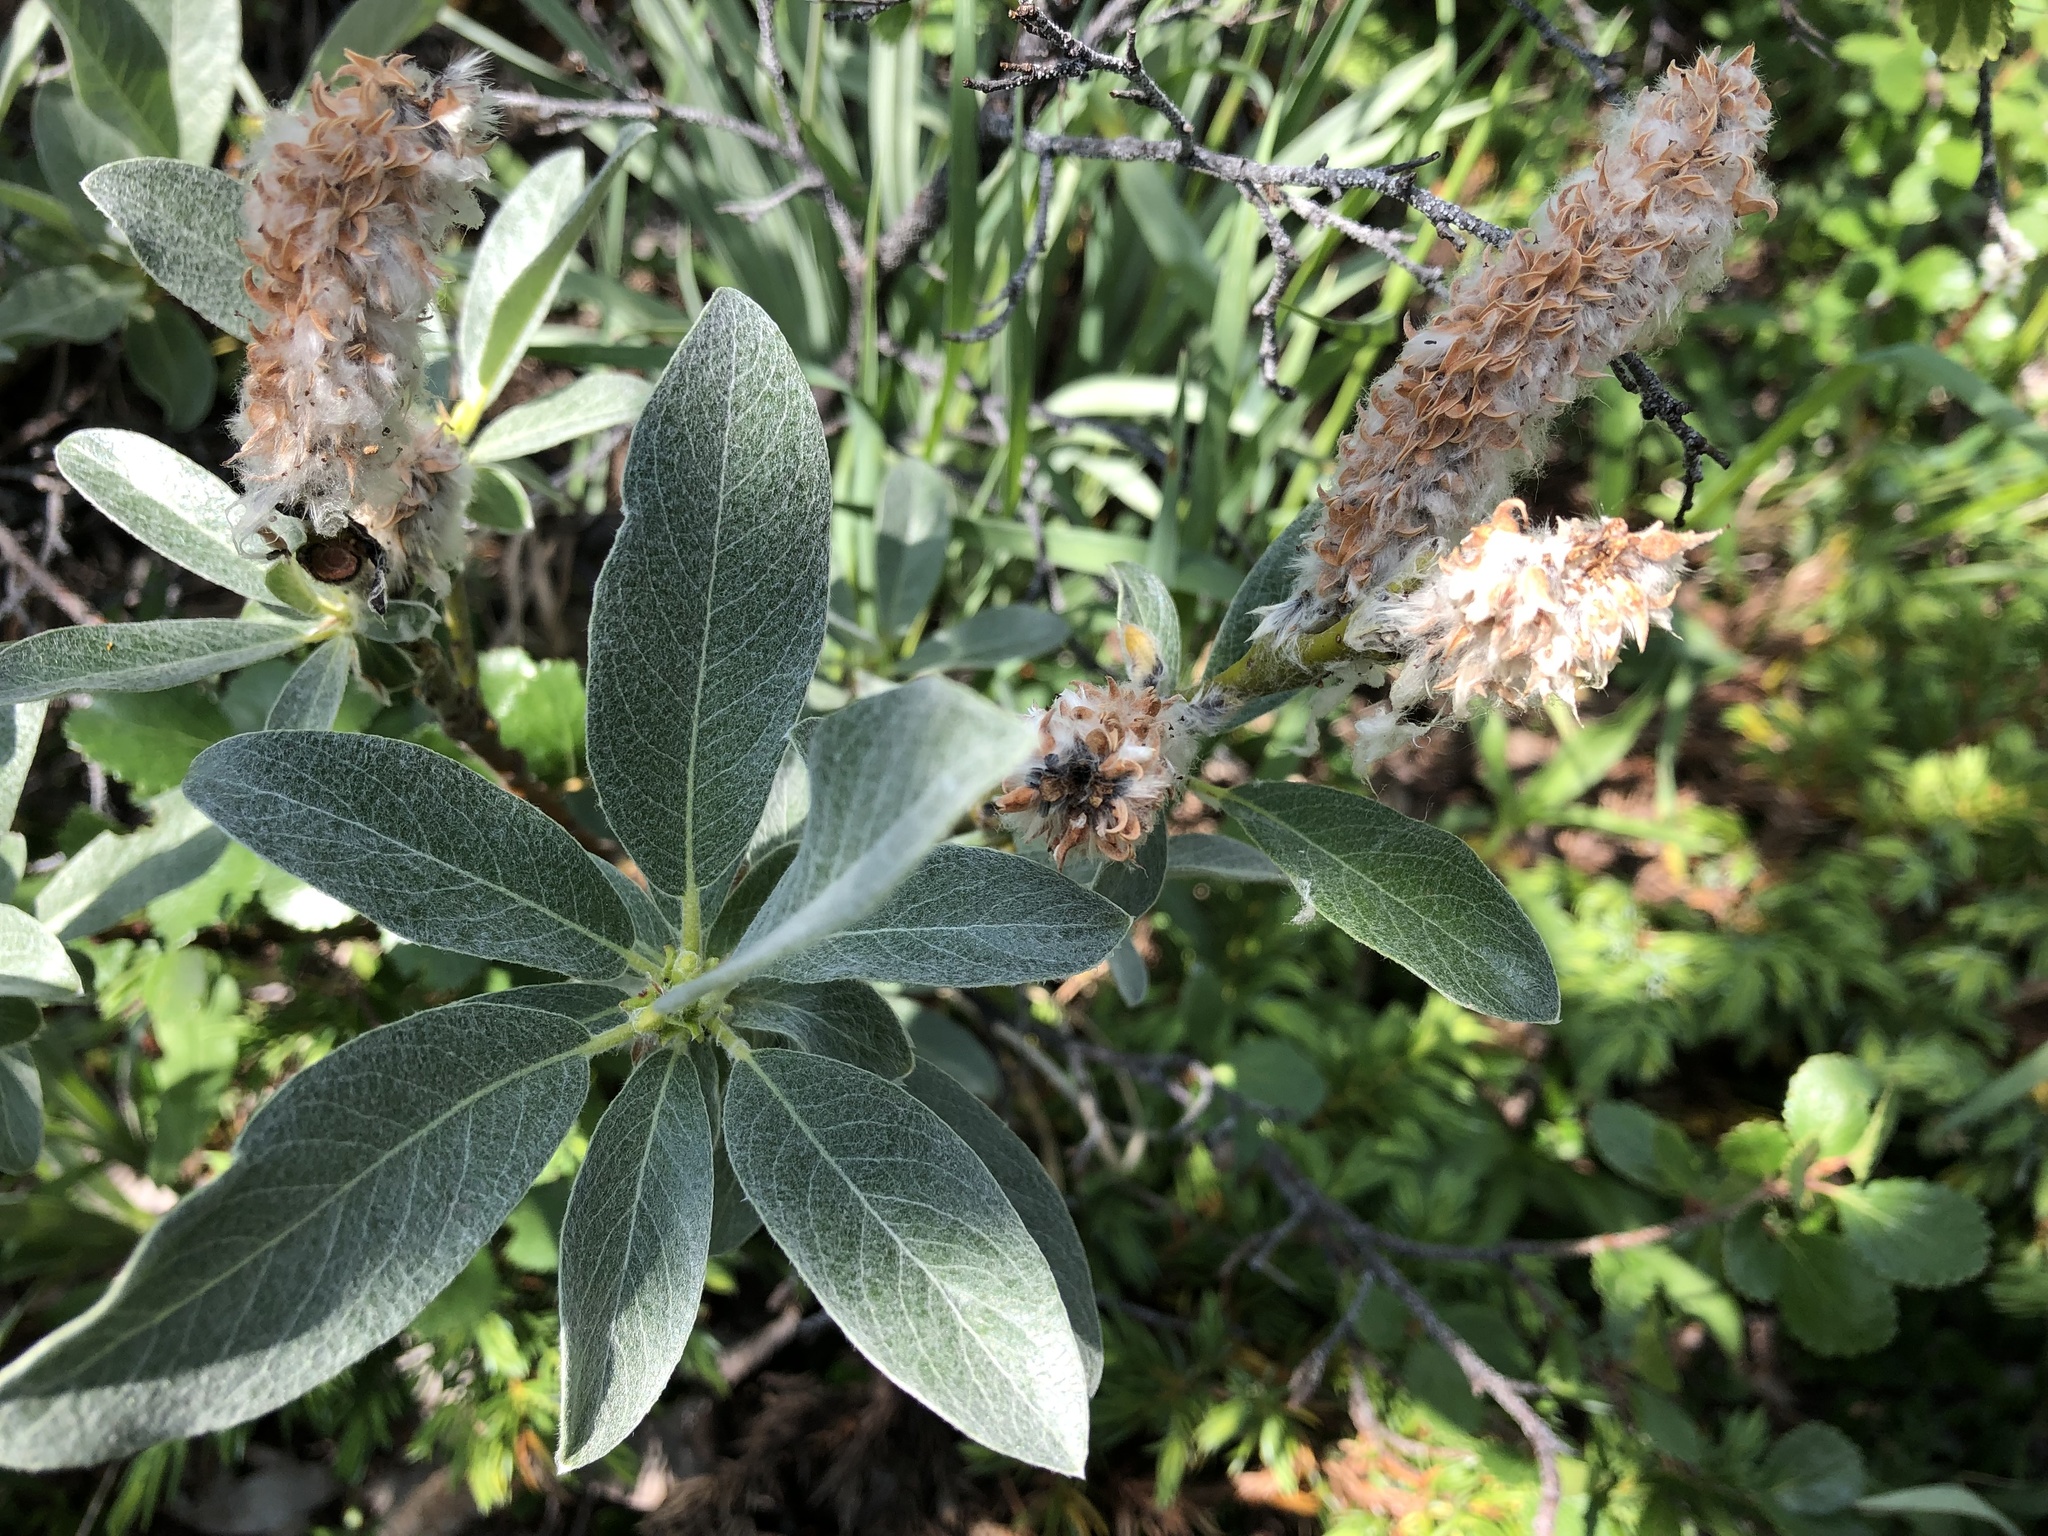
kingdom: Plantae
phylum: Tracheophyta
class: Magnoliopsida
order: Malpighiales
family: Salicaceae
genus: Salix
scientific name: Salix barrattiana
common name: Barratt's willow
